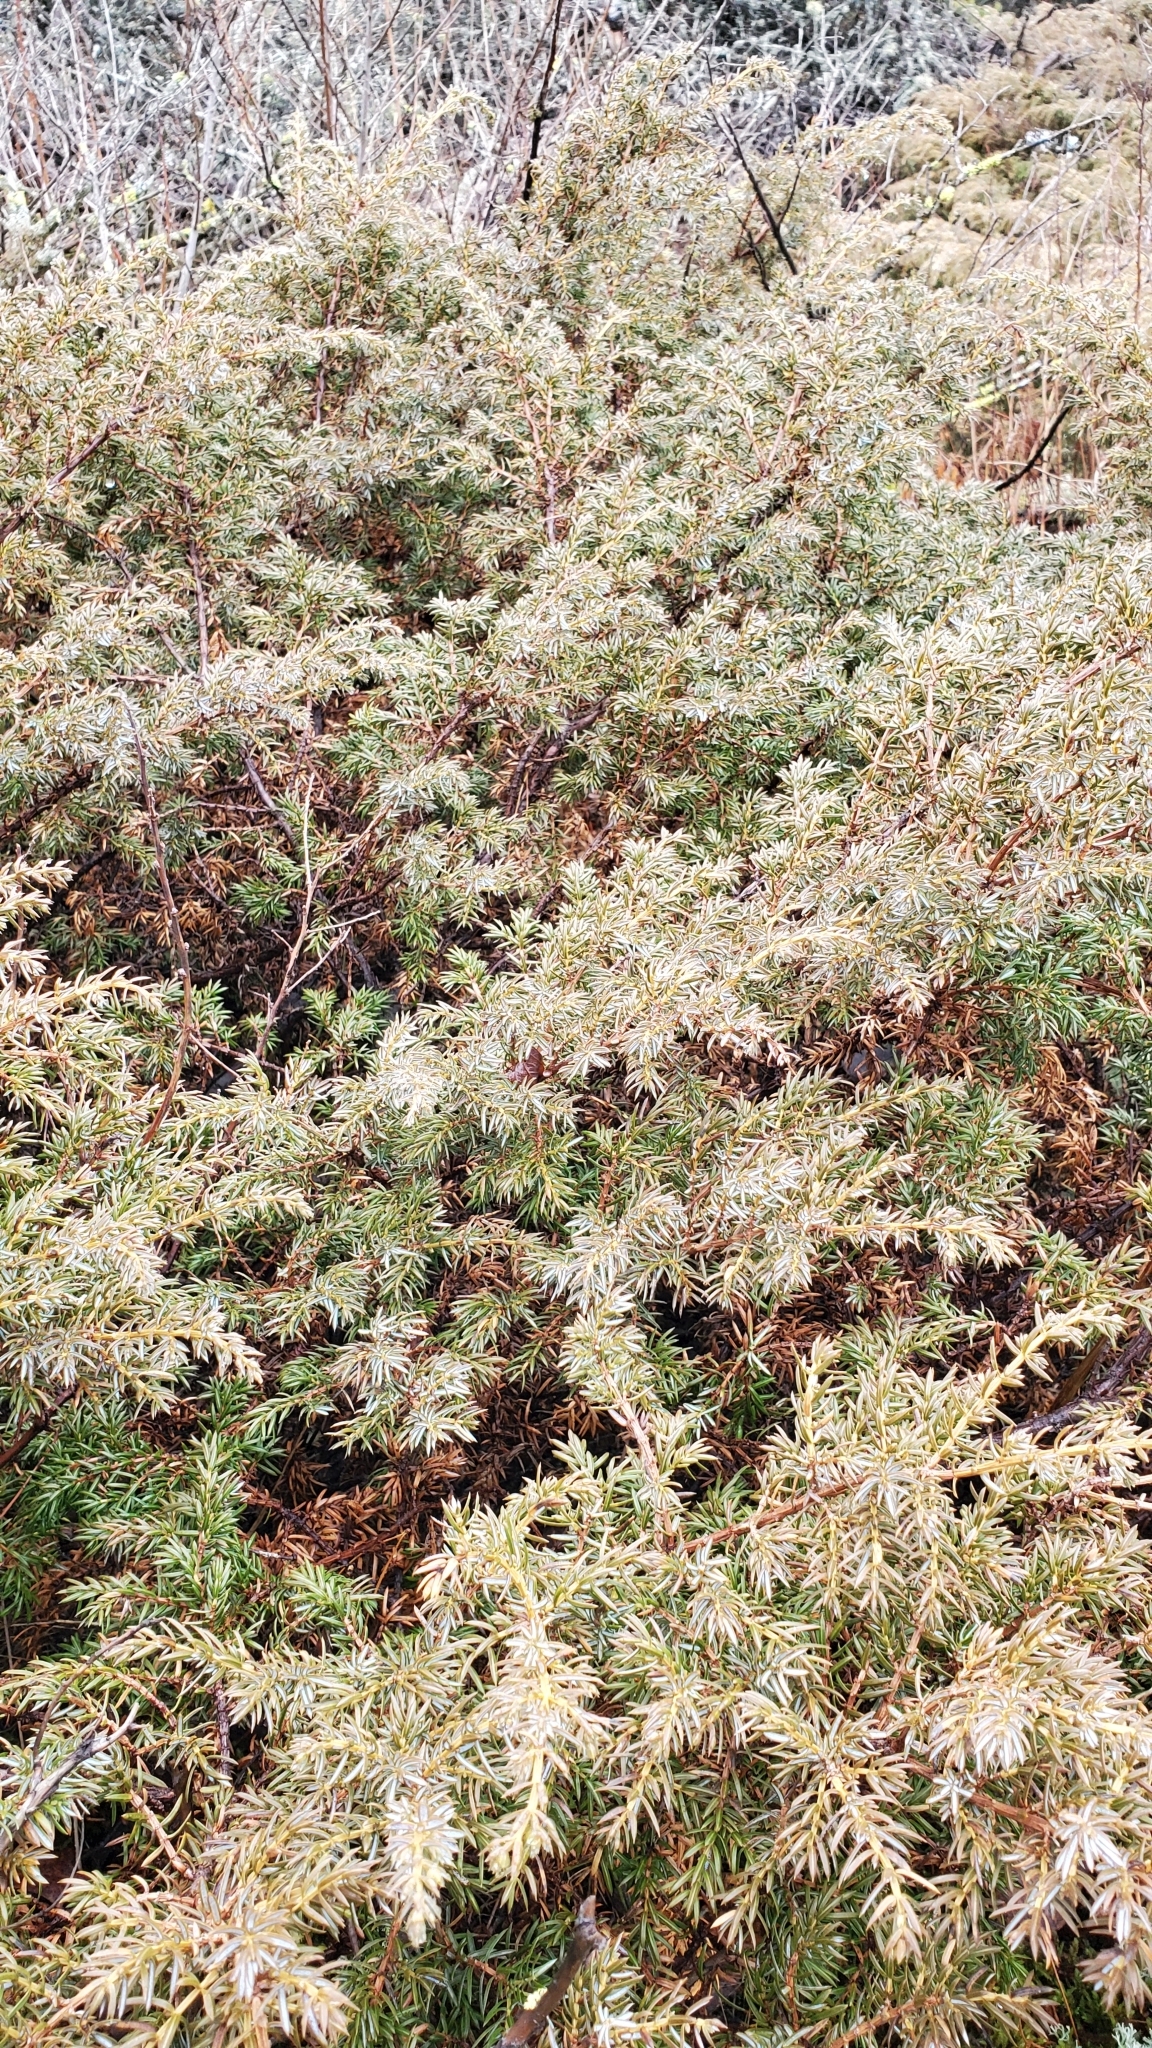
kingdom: Plantae
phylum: Tracheophyta
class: Pinopsida
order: Pinales
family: Cupressaceae
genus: Juniperus
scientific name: Juniperus communis
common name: Common juniper
